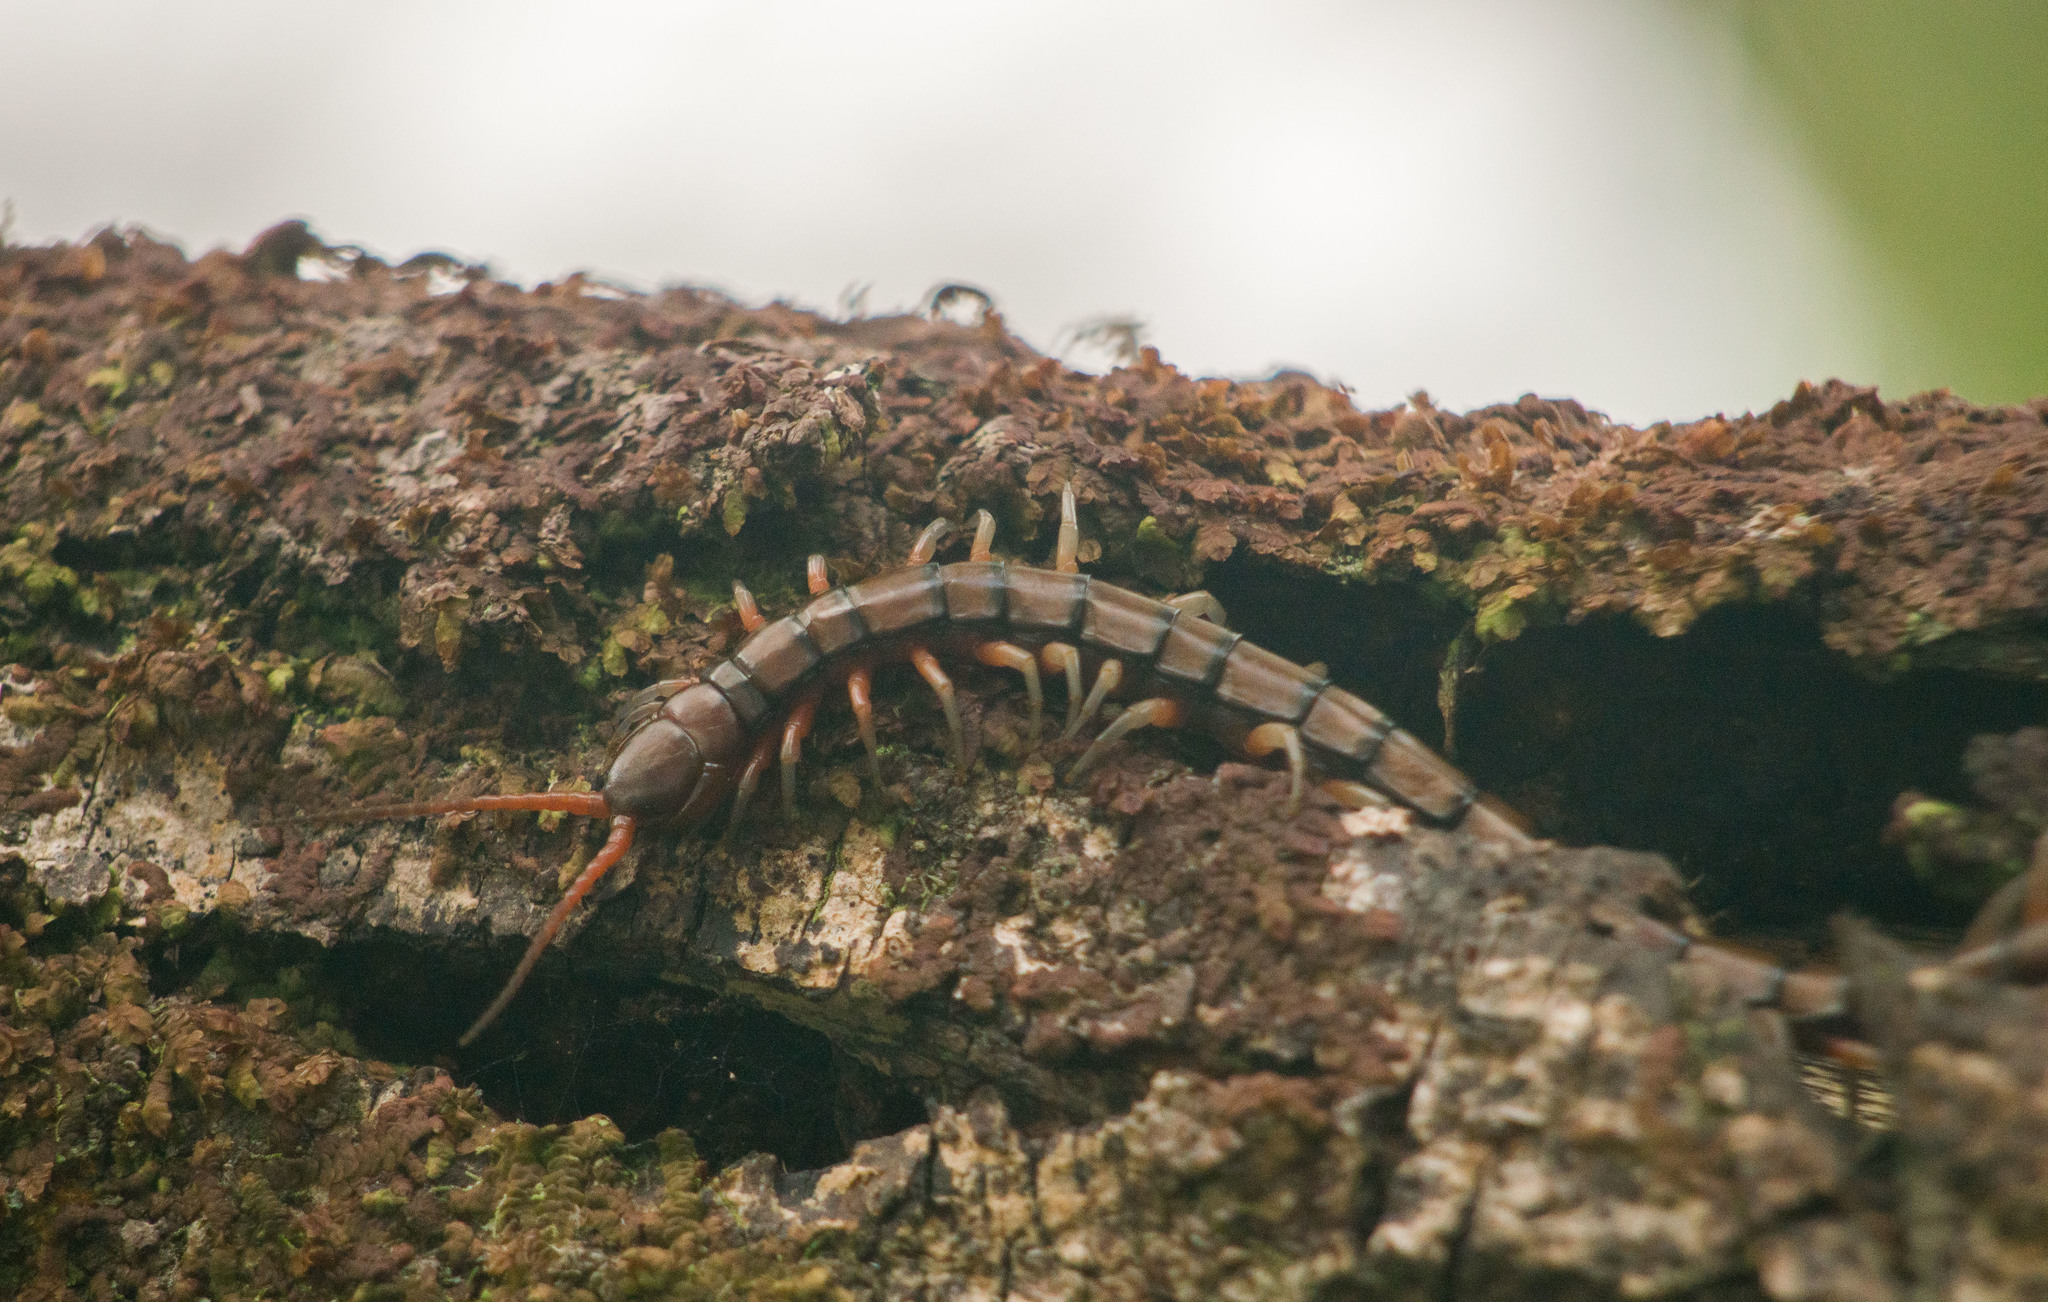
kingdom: Animalia
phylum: Arthropoda
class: Chilopoda
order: Scolopendromorpha
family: Scolopendridae
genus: Scolopendra
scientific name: Scolopendra subspinipes
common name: Centipede
